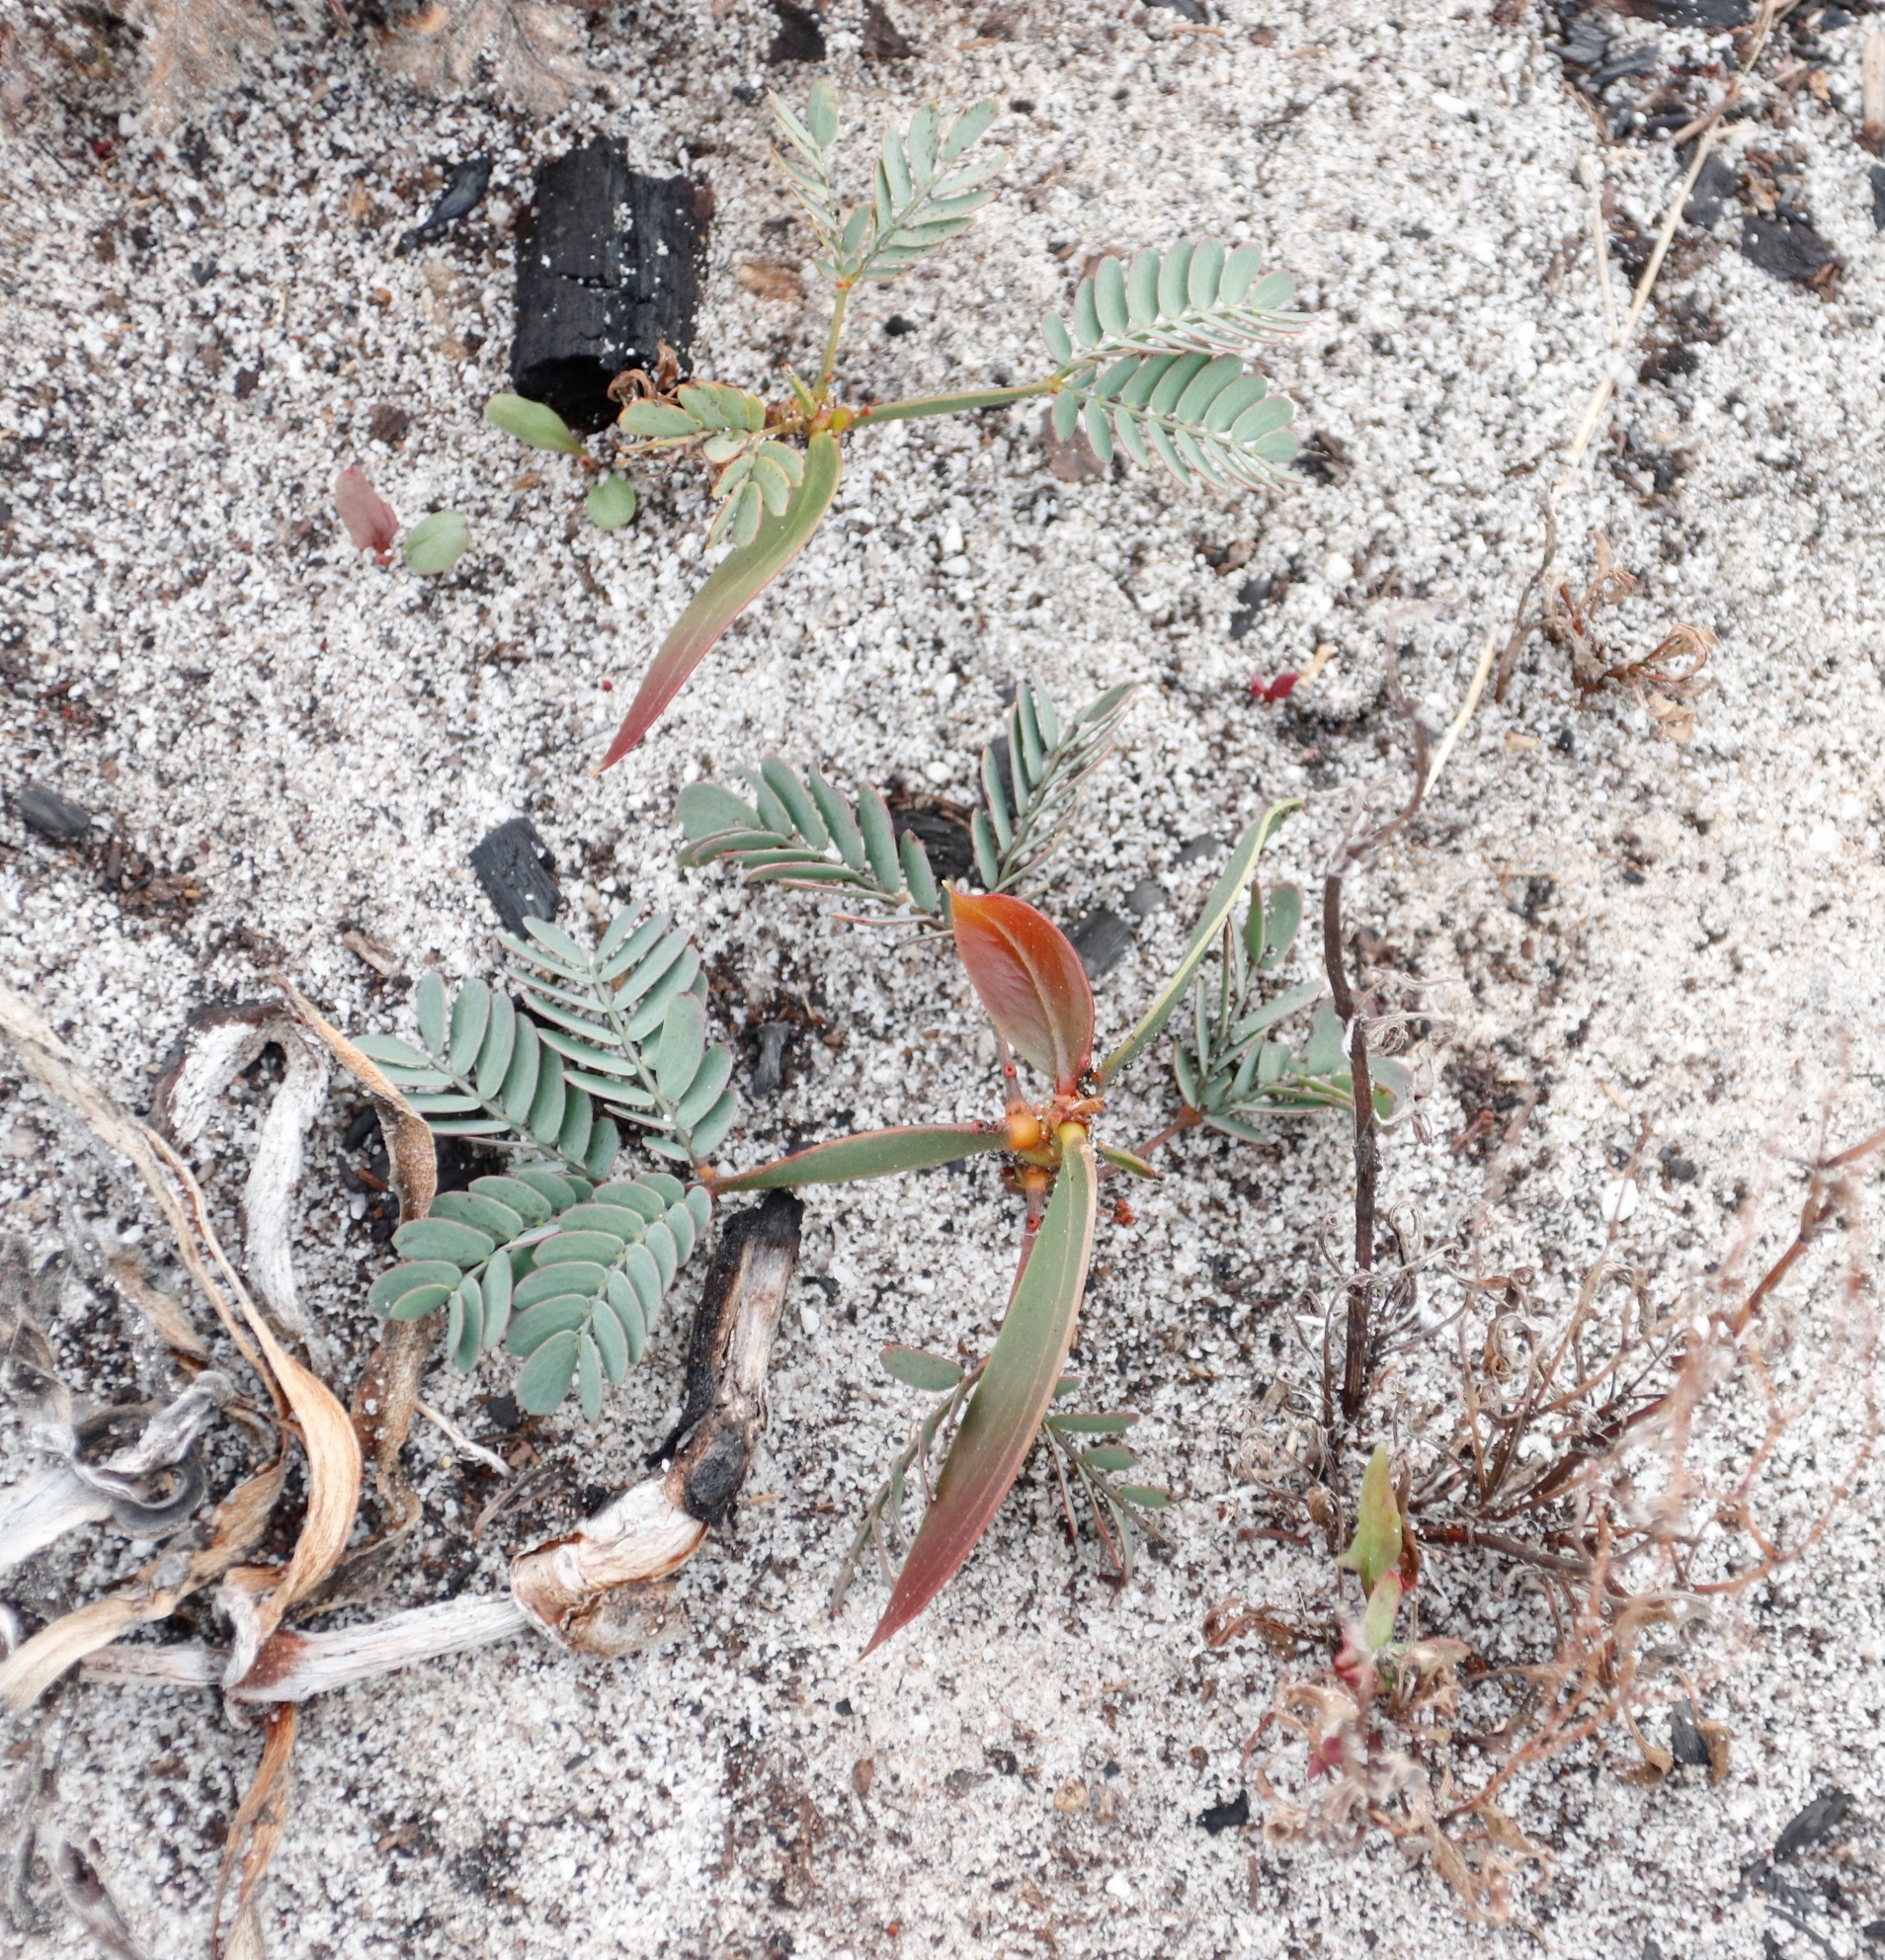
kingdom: Plantae
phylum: Tracheophyta
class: Magnoliopsida
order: Fabales
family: Fabaceae
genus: Acacia
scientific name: Acacia pycnantha
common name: Golden wattle
